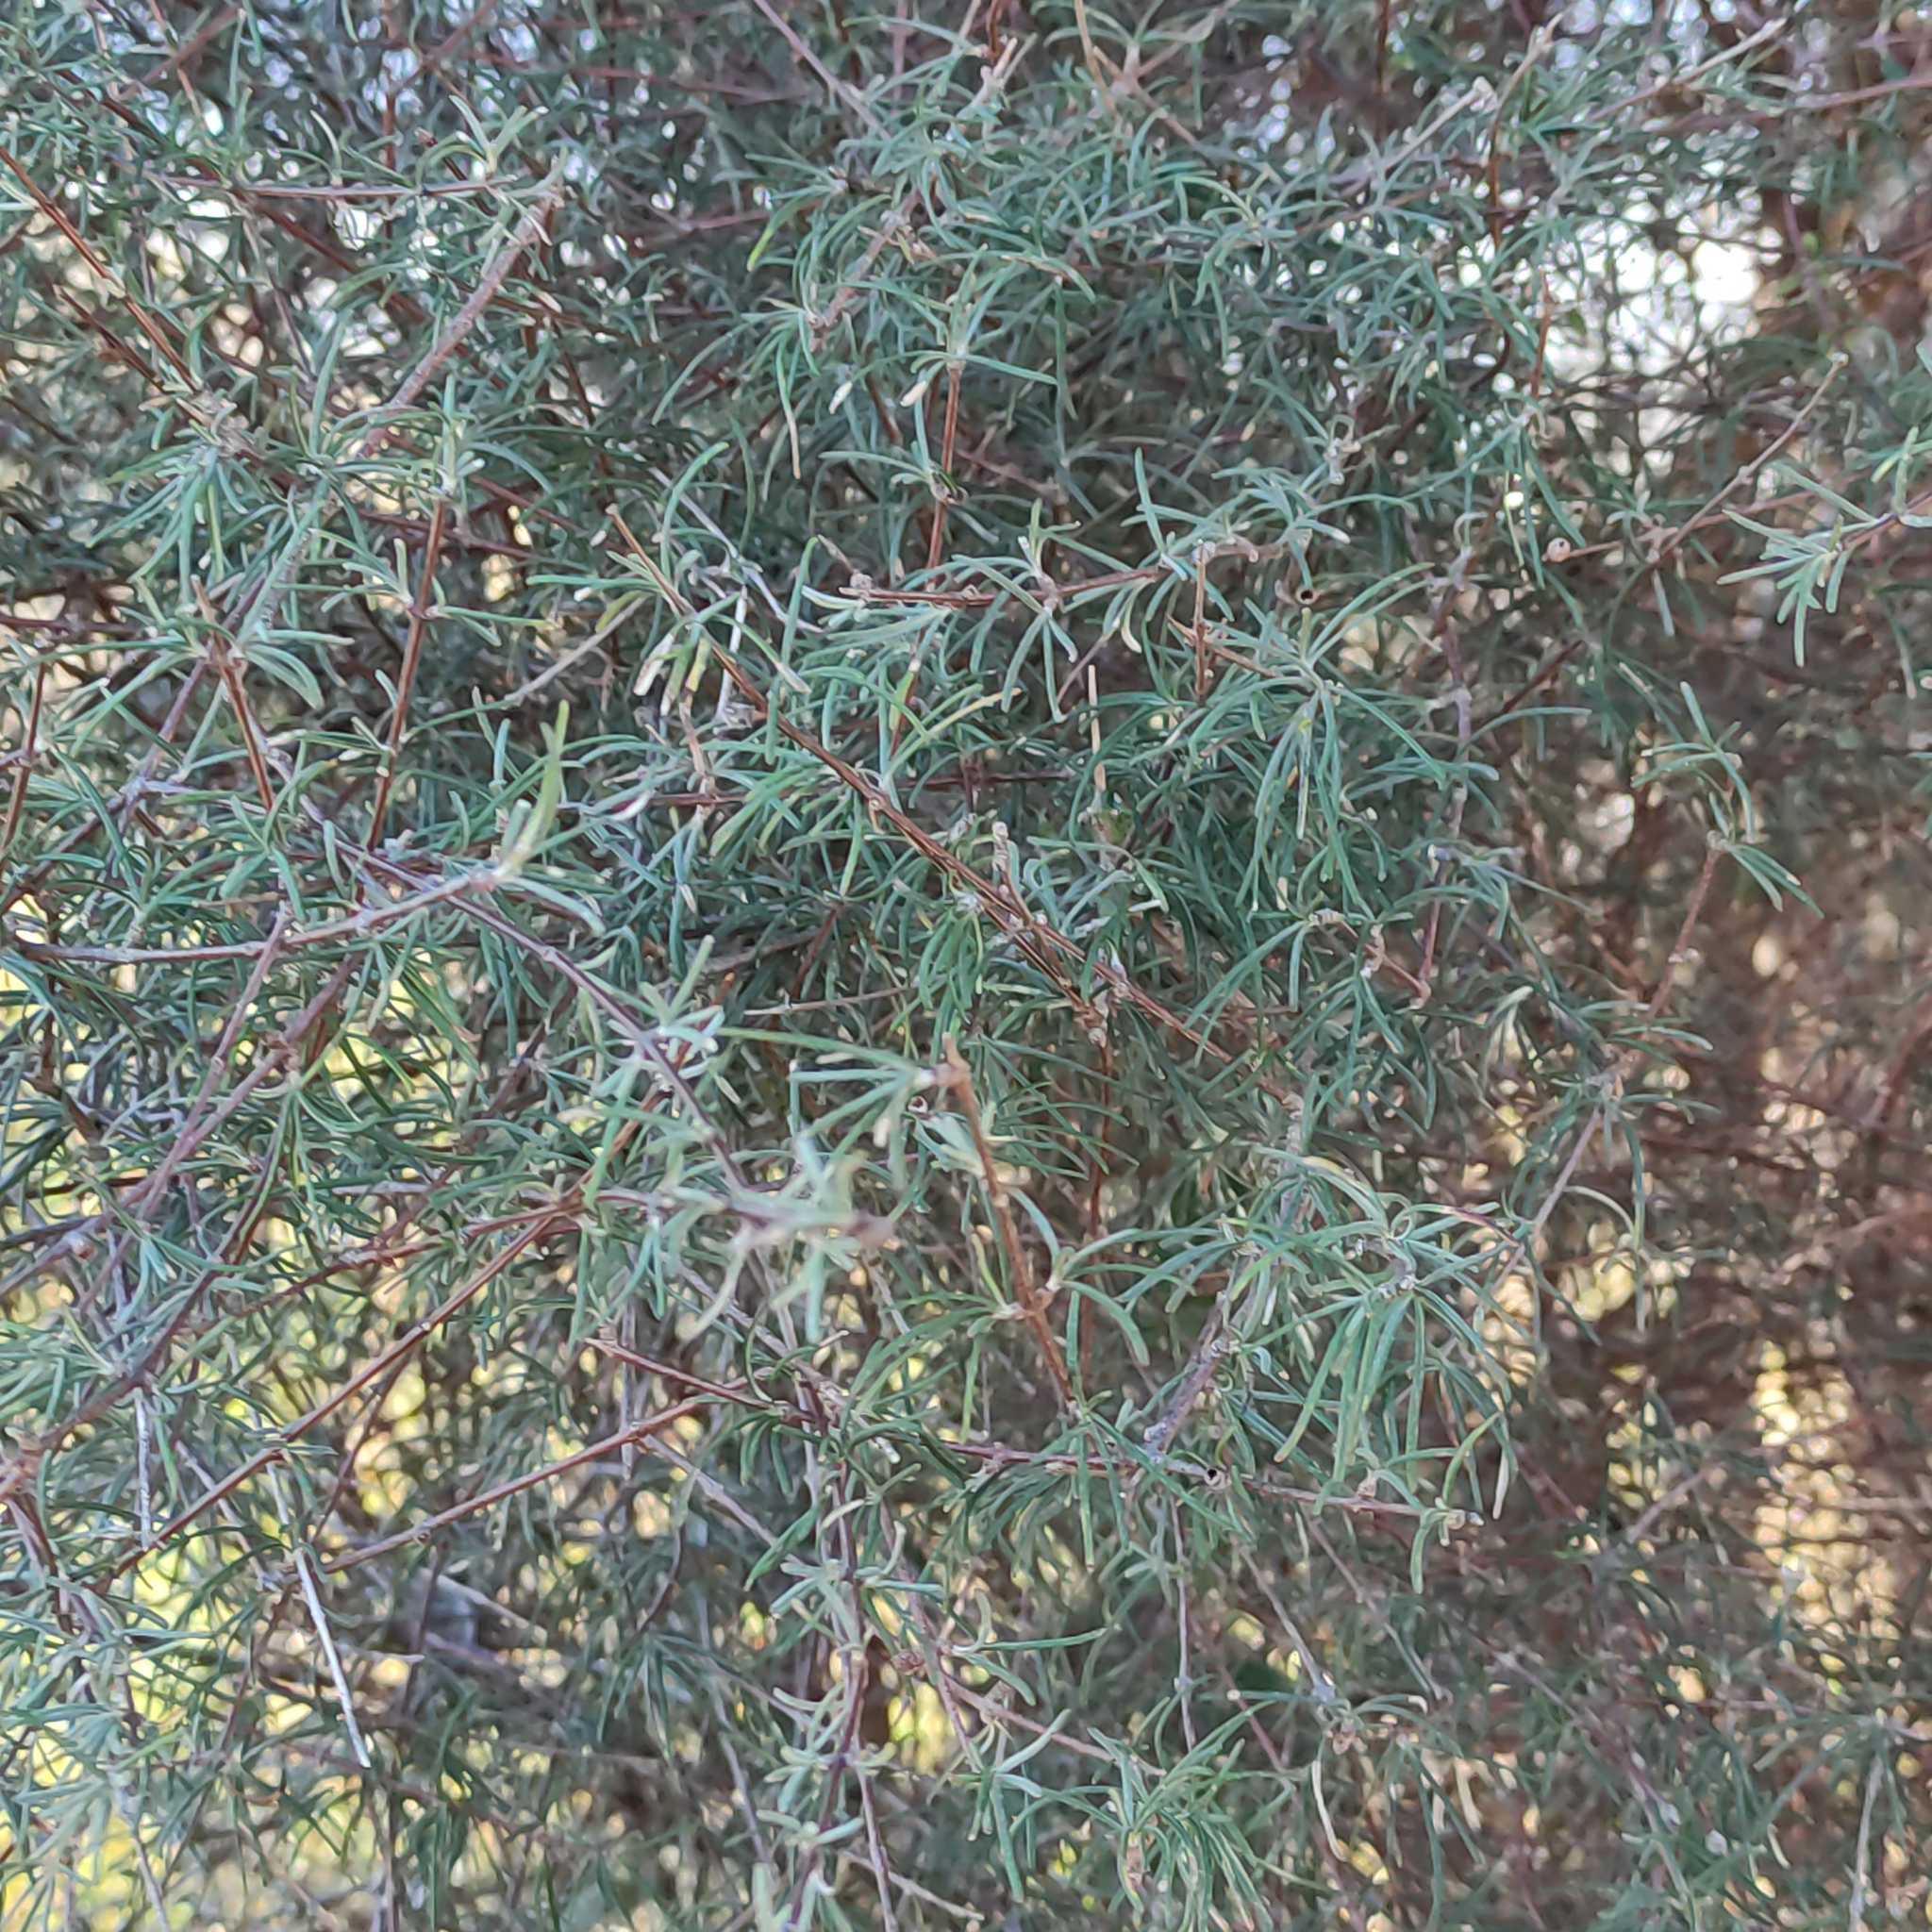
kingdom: Plantae
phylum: Tracheophyta
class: Magnoliopsida
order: Asterales
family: Asteraceae
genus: Olearia
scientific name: Olearia lineata
